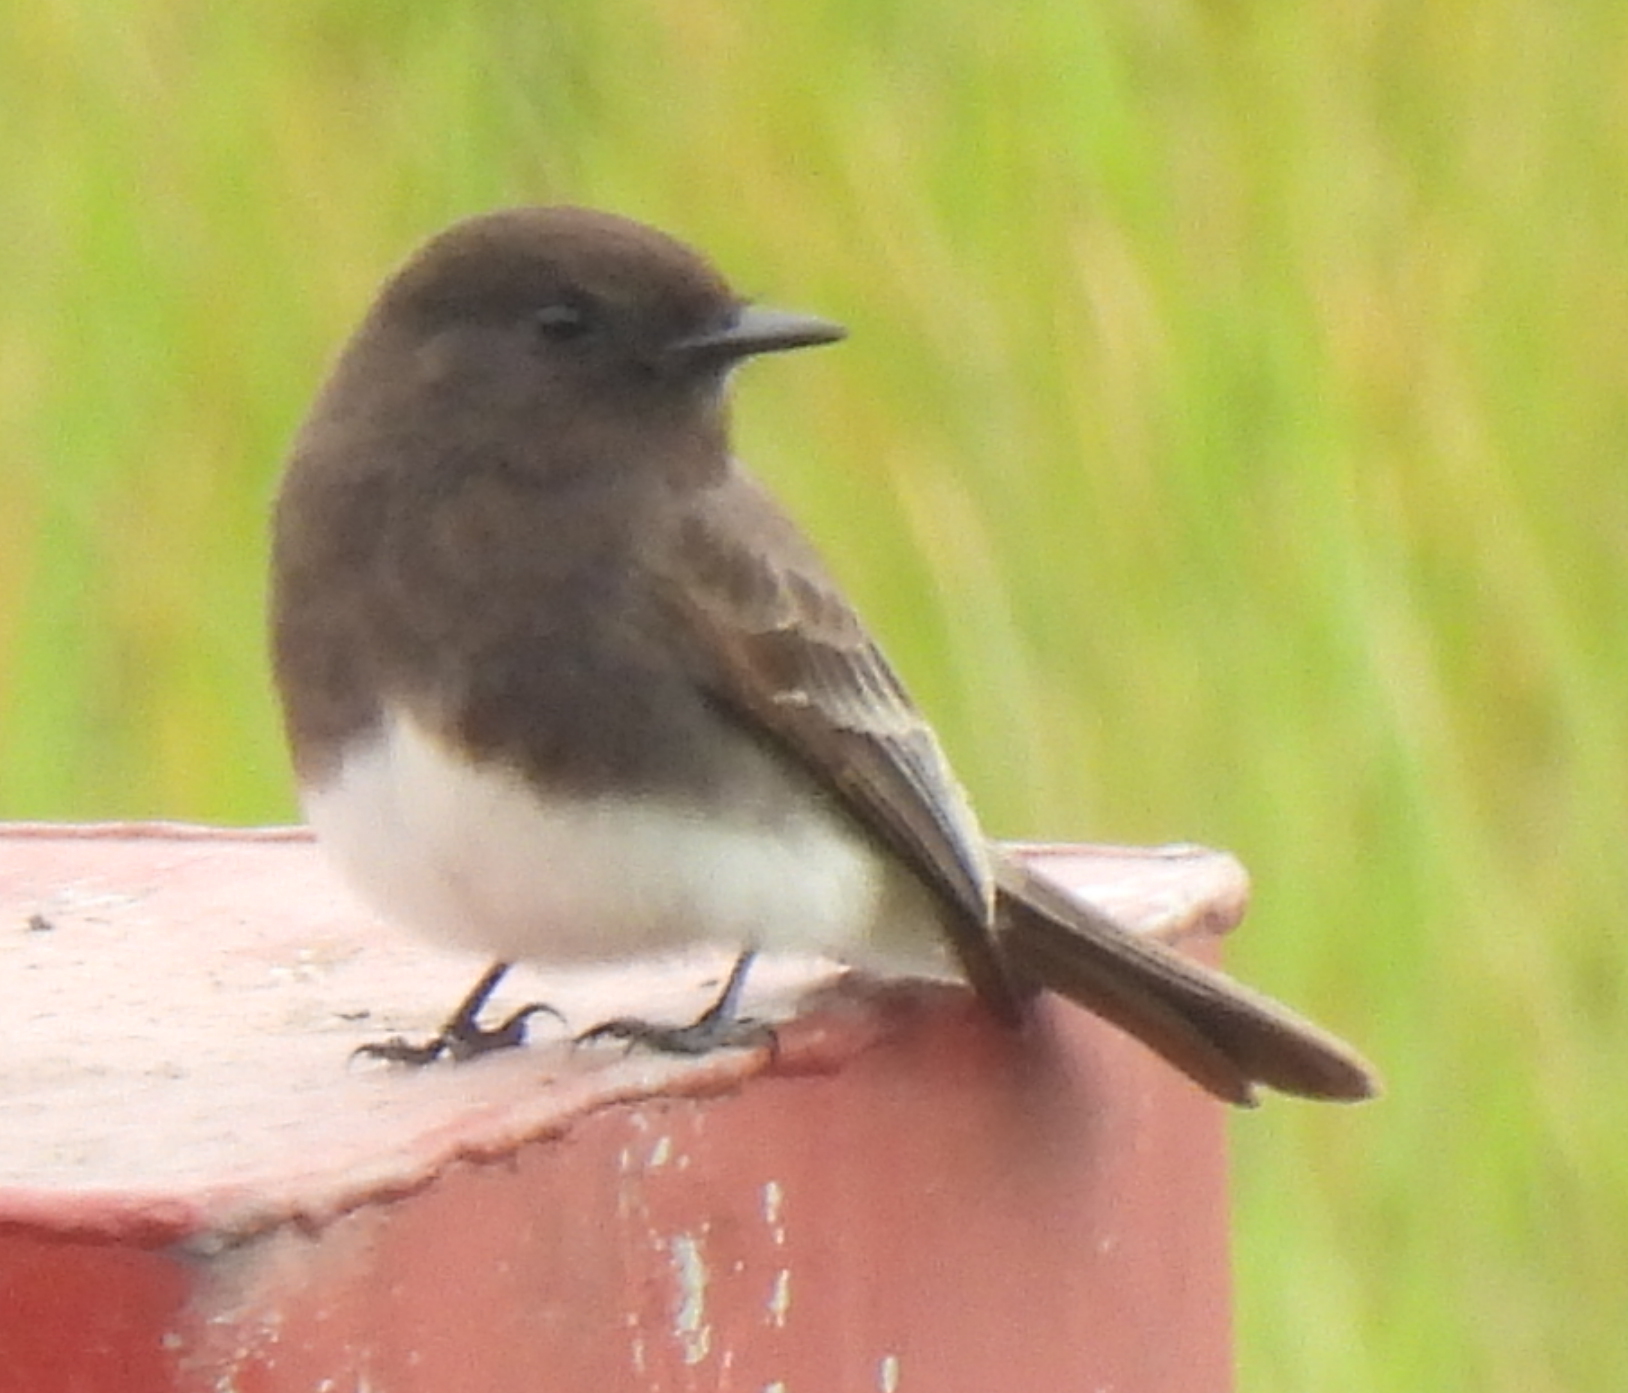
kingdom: Animalia
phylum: Chordata
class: Aves
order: Passeriformes
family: Tyrannidae
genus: Sayornis
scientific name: Sayornis nigricans
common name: Black phoebe
